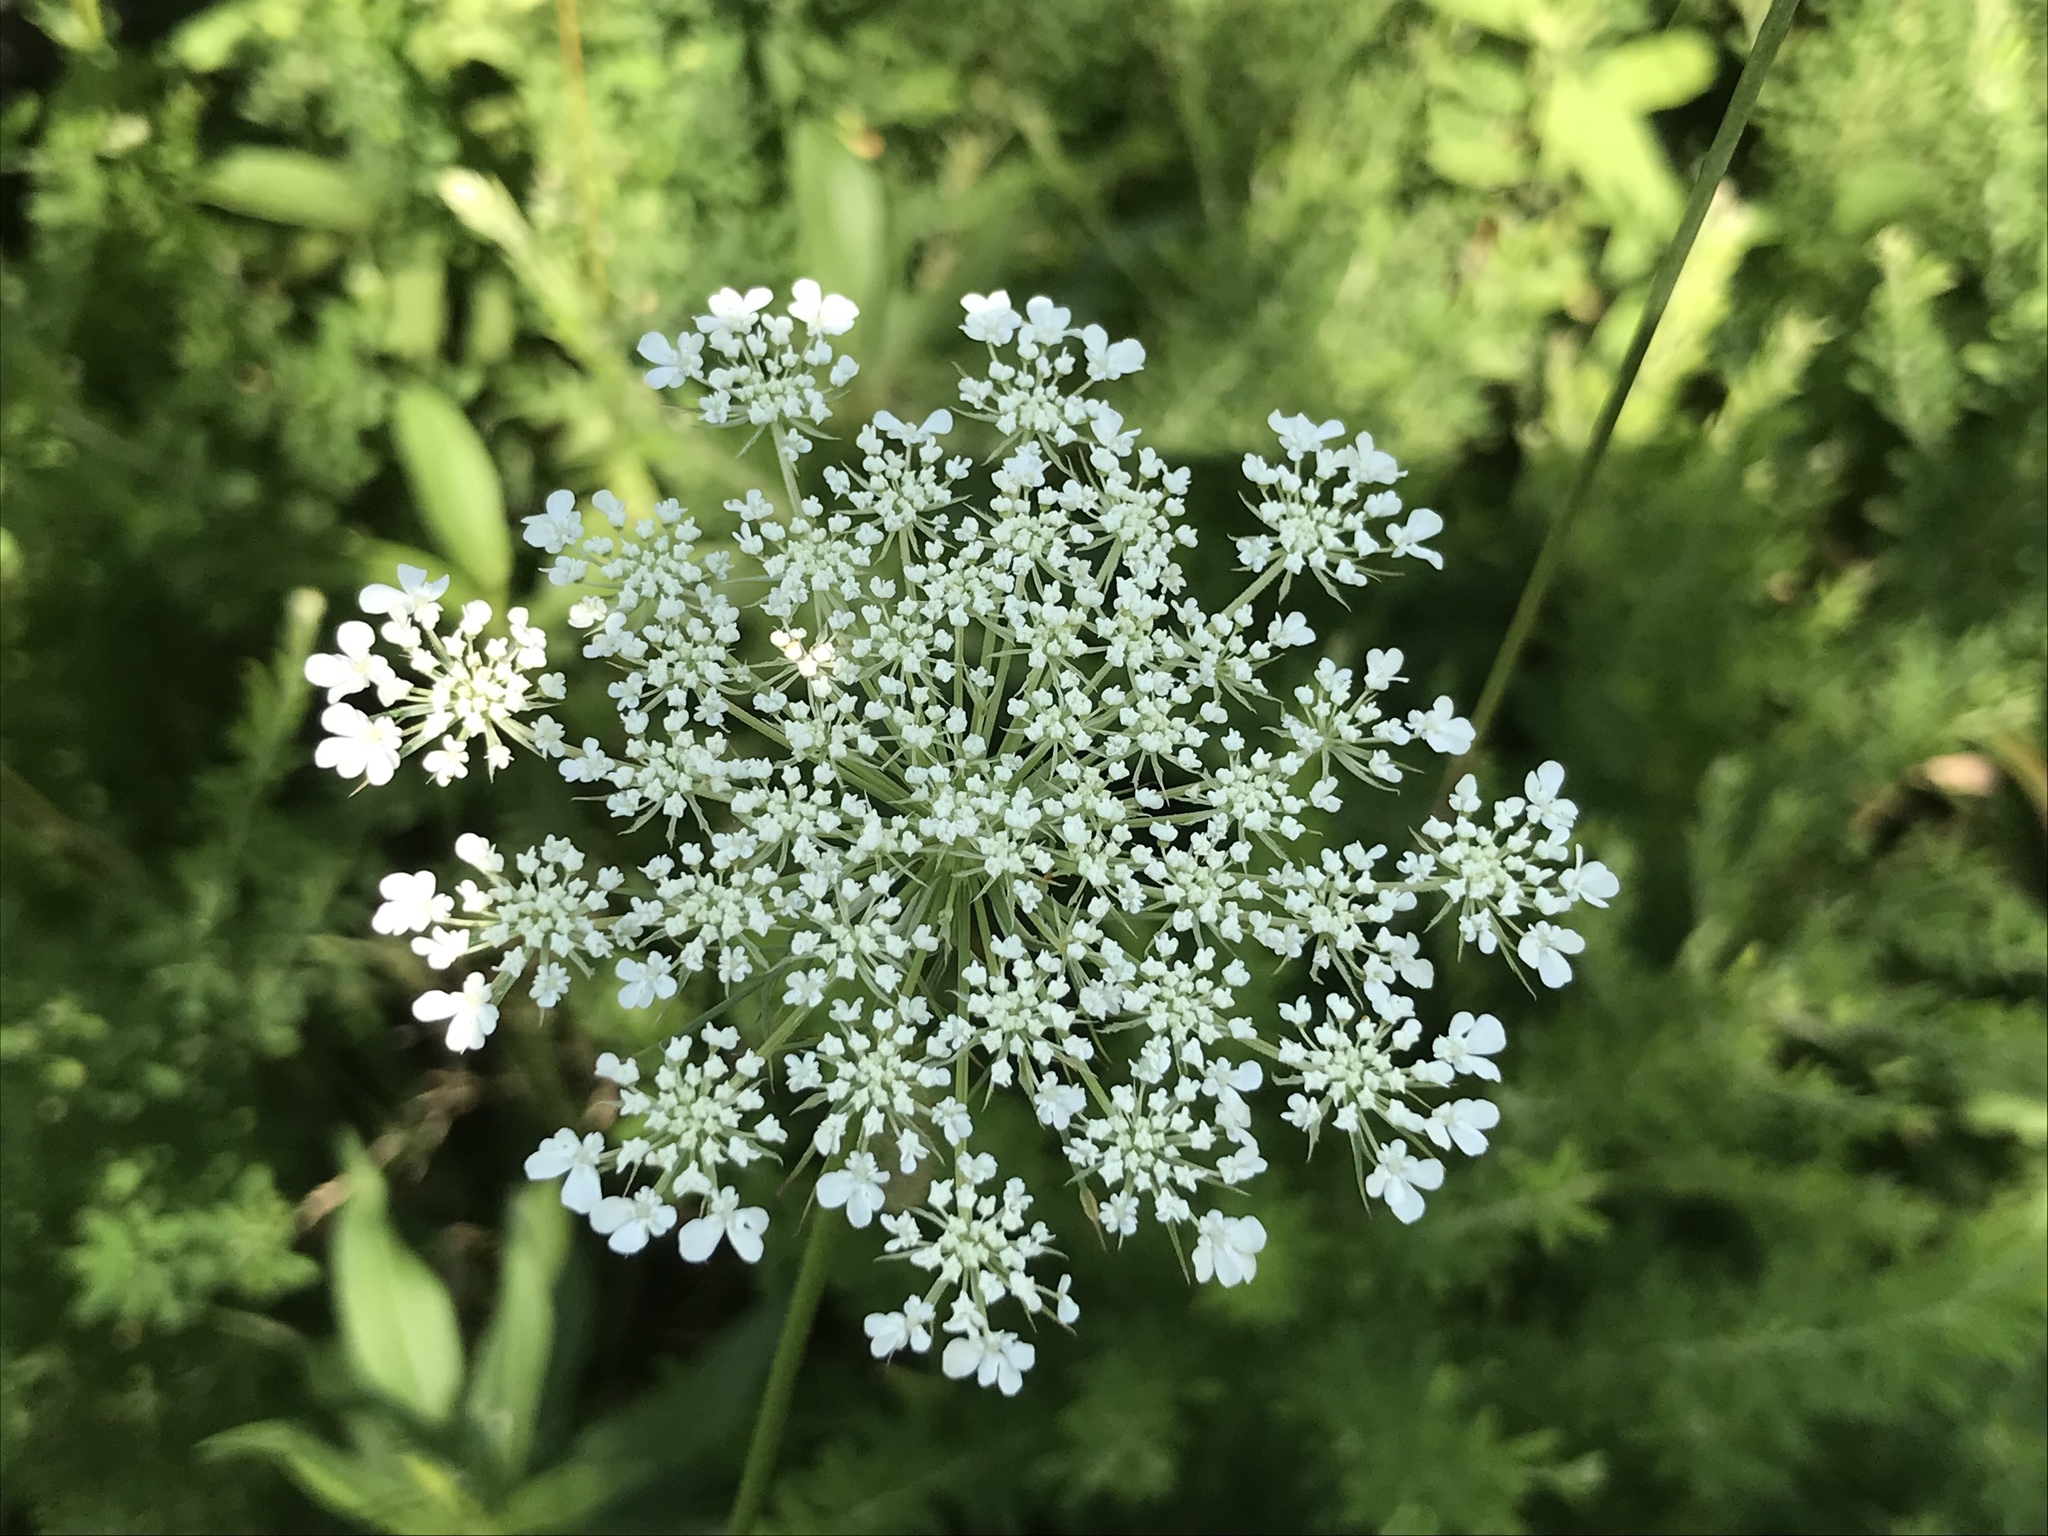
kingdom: Plantae
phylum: Tracheophyta
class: Magnoliopsida
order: Apiales
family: Apiaceae
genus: Daucus
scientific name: Daucus carota
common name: Wild carrot
